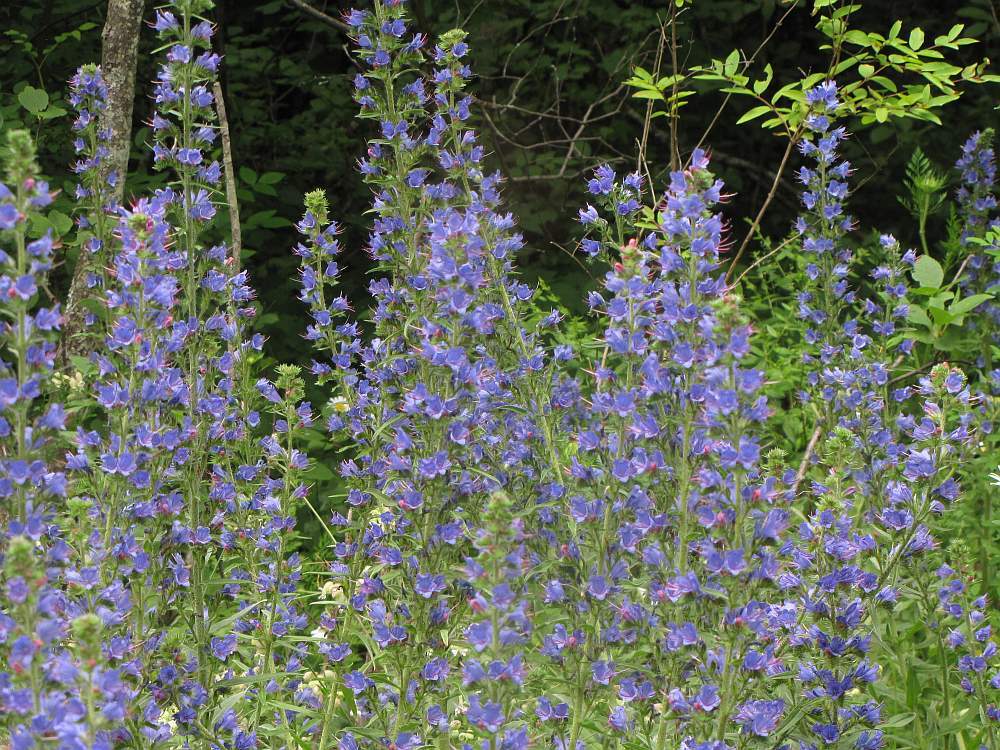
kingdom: Plantae
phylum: Tracheophyta
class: Magnoliopsida
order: Boraginales
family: Boraginaceae
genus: Echium
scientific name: Echium vulgare
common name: Common viper's bugloss
